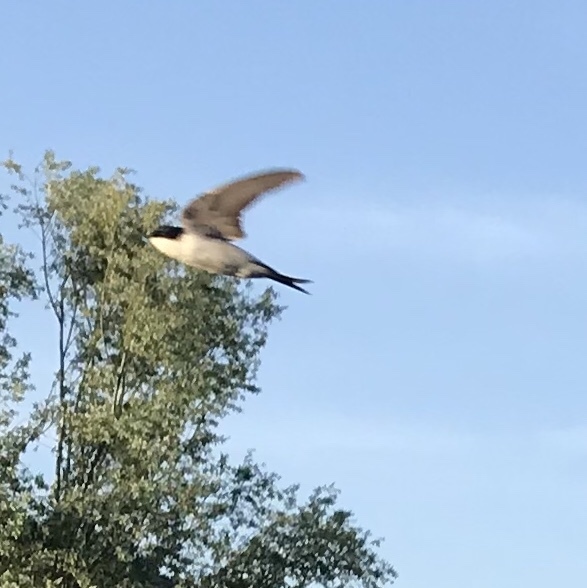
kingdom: Animalia
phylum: Chordata
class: Aves
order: Passeriformes
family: Hirundinidae
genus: Delichon
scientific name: Delichon urbicum
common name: Common house martin
